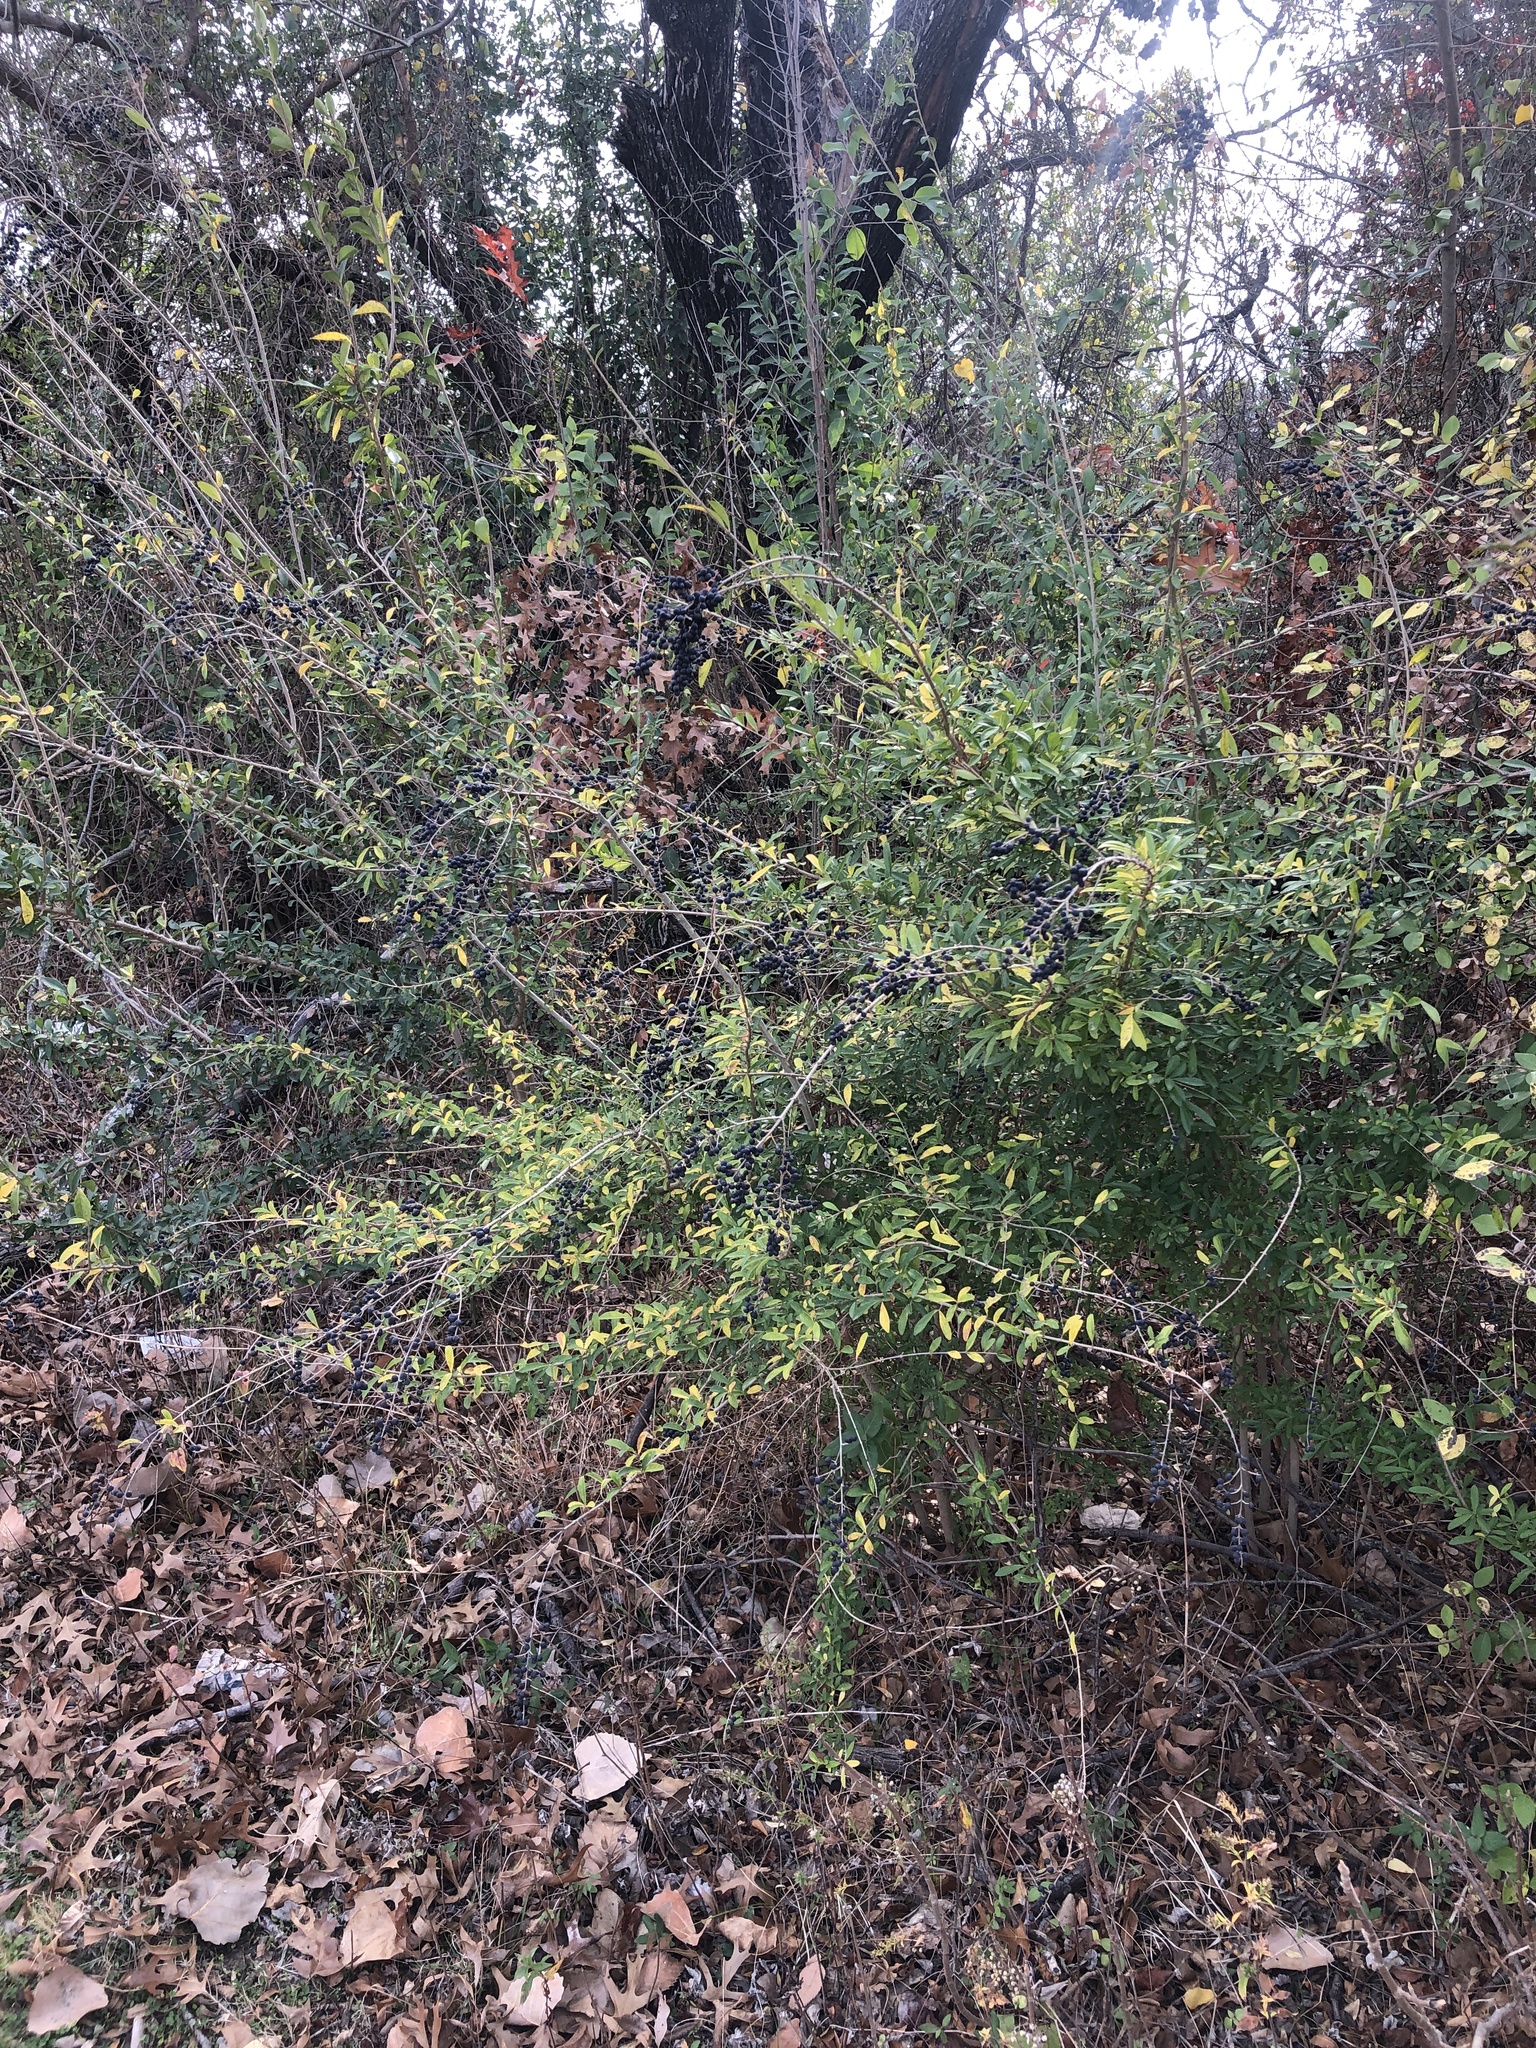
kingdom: Plantae
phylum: Tracheophyta
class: Magnoliopsida
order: Lamiales
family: Oleaceae
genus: Ligustrum
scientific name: Ligustrum quihoui
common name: Waxyleaf privet
